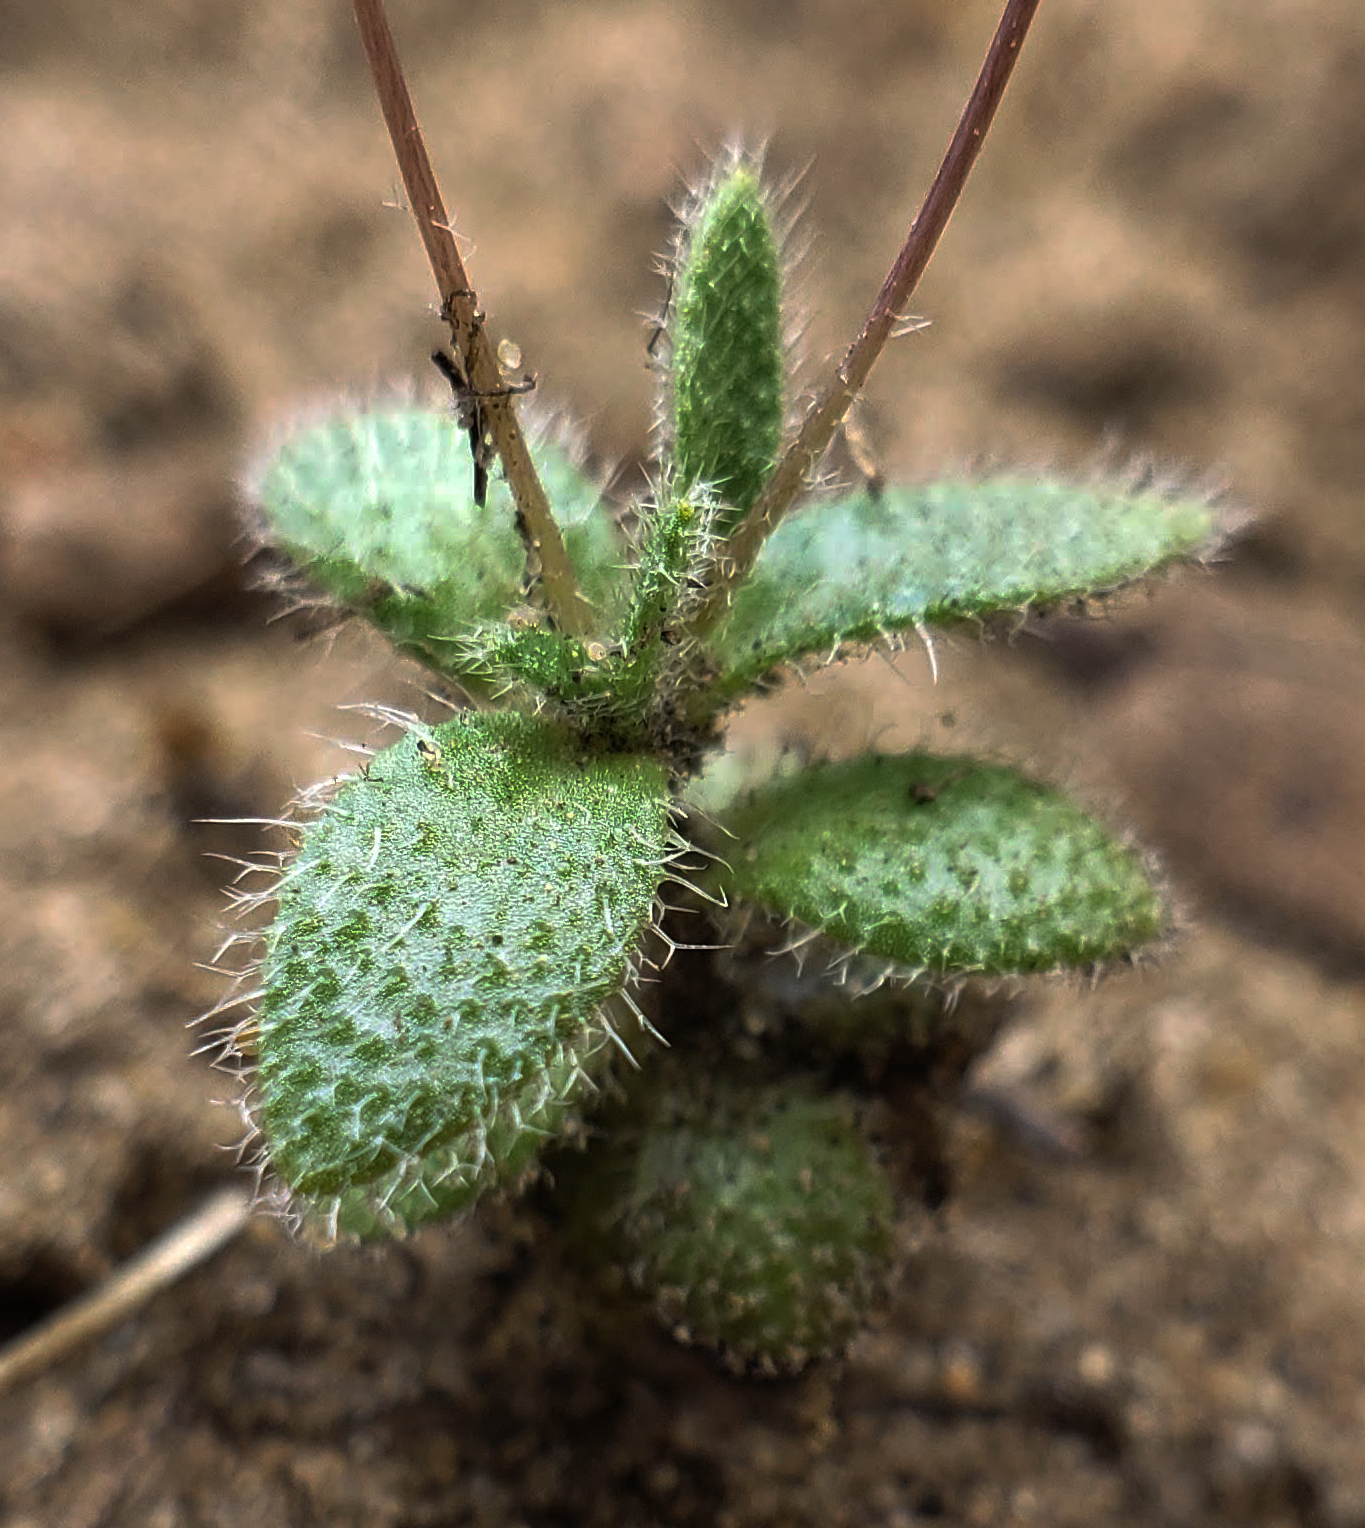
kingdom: Plantae
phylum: Tracheophyta
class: Magnoliopsida
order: Brassicales
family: Brassicaceae
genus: Tomostima
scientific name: Tomostima reptans
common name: Carolina draba
